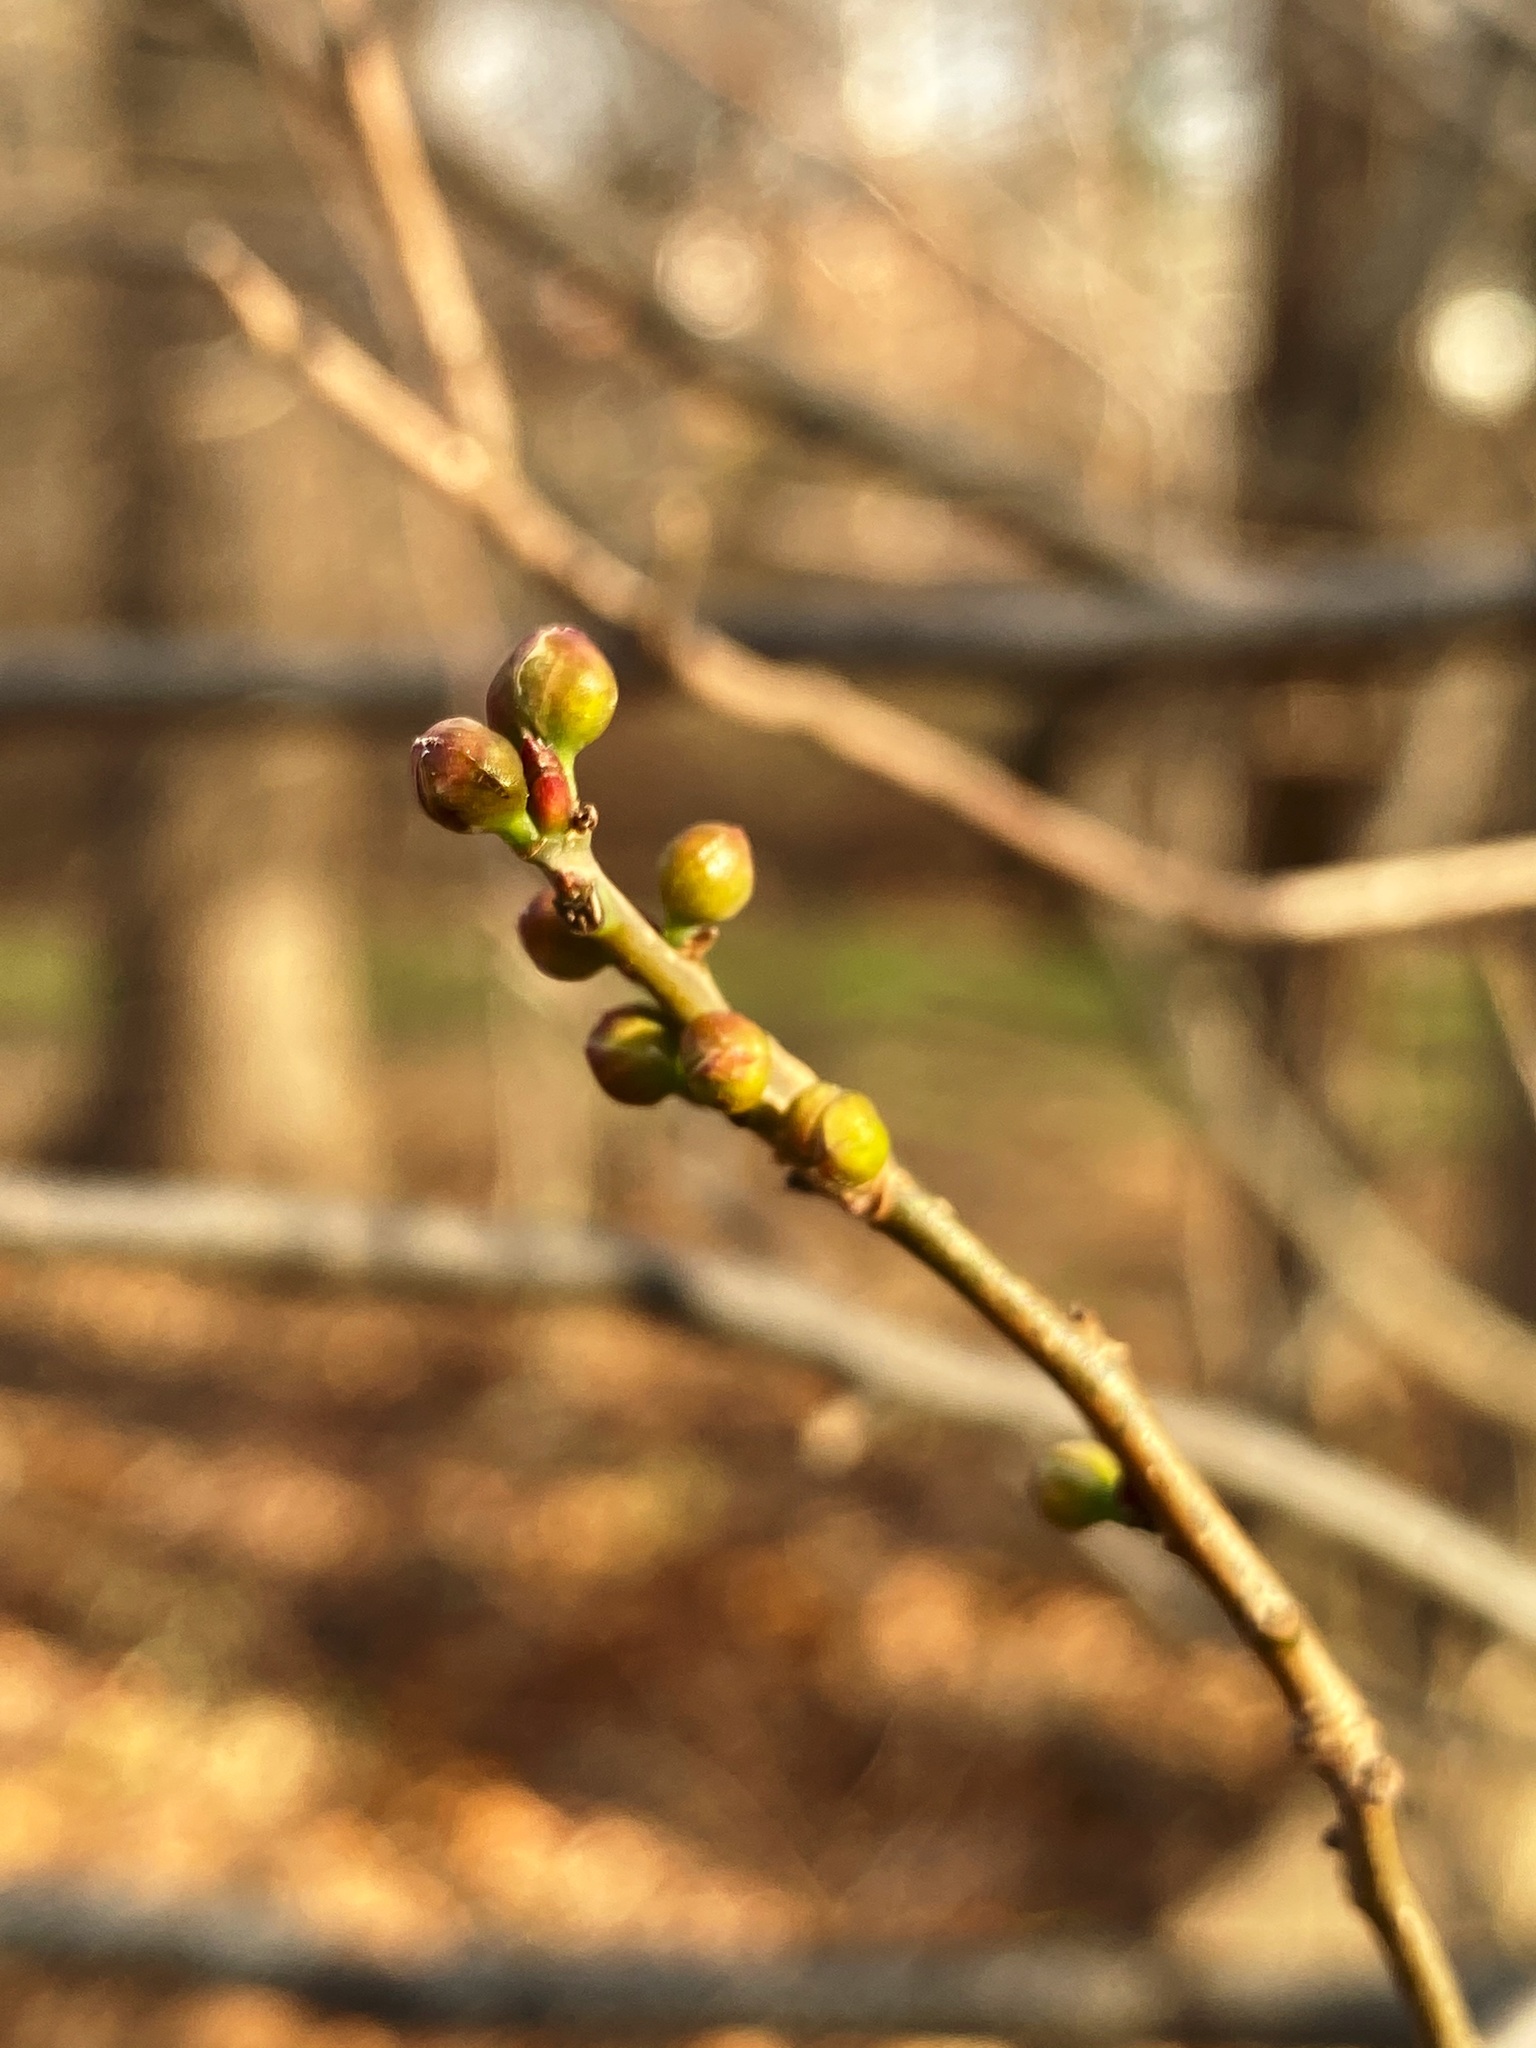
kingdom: Plantae
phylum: Tracheophyta
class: Magnoliopsida
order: Laurales
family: Lauraceae
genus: Lindera
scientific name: Lindera benzoin
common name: Spicebush
